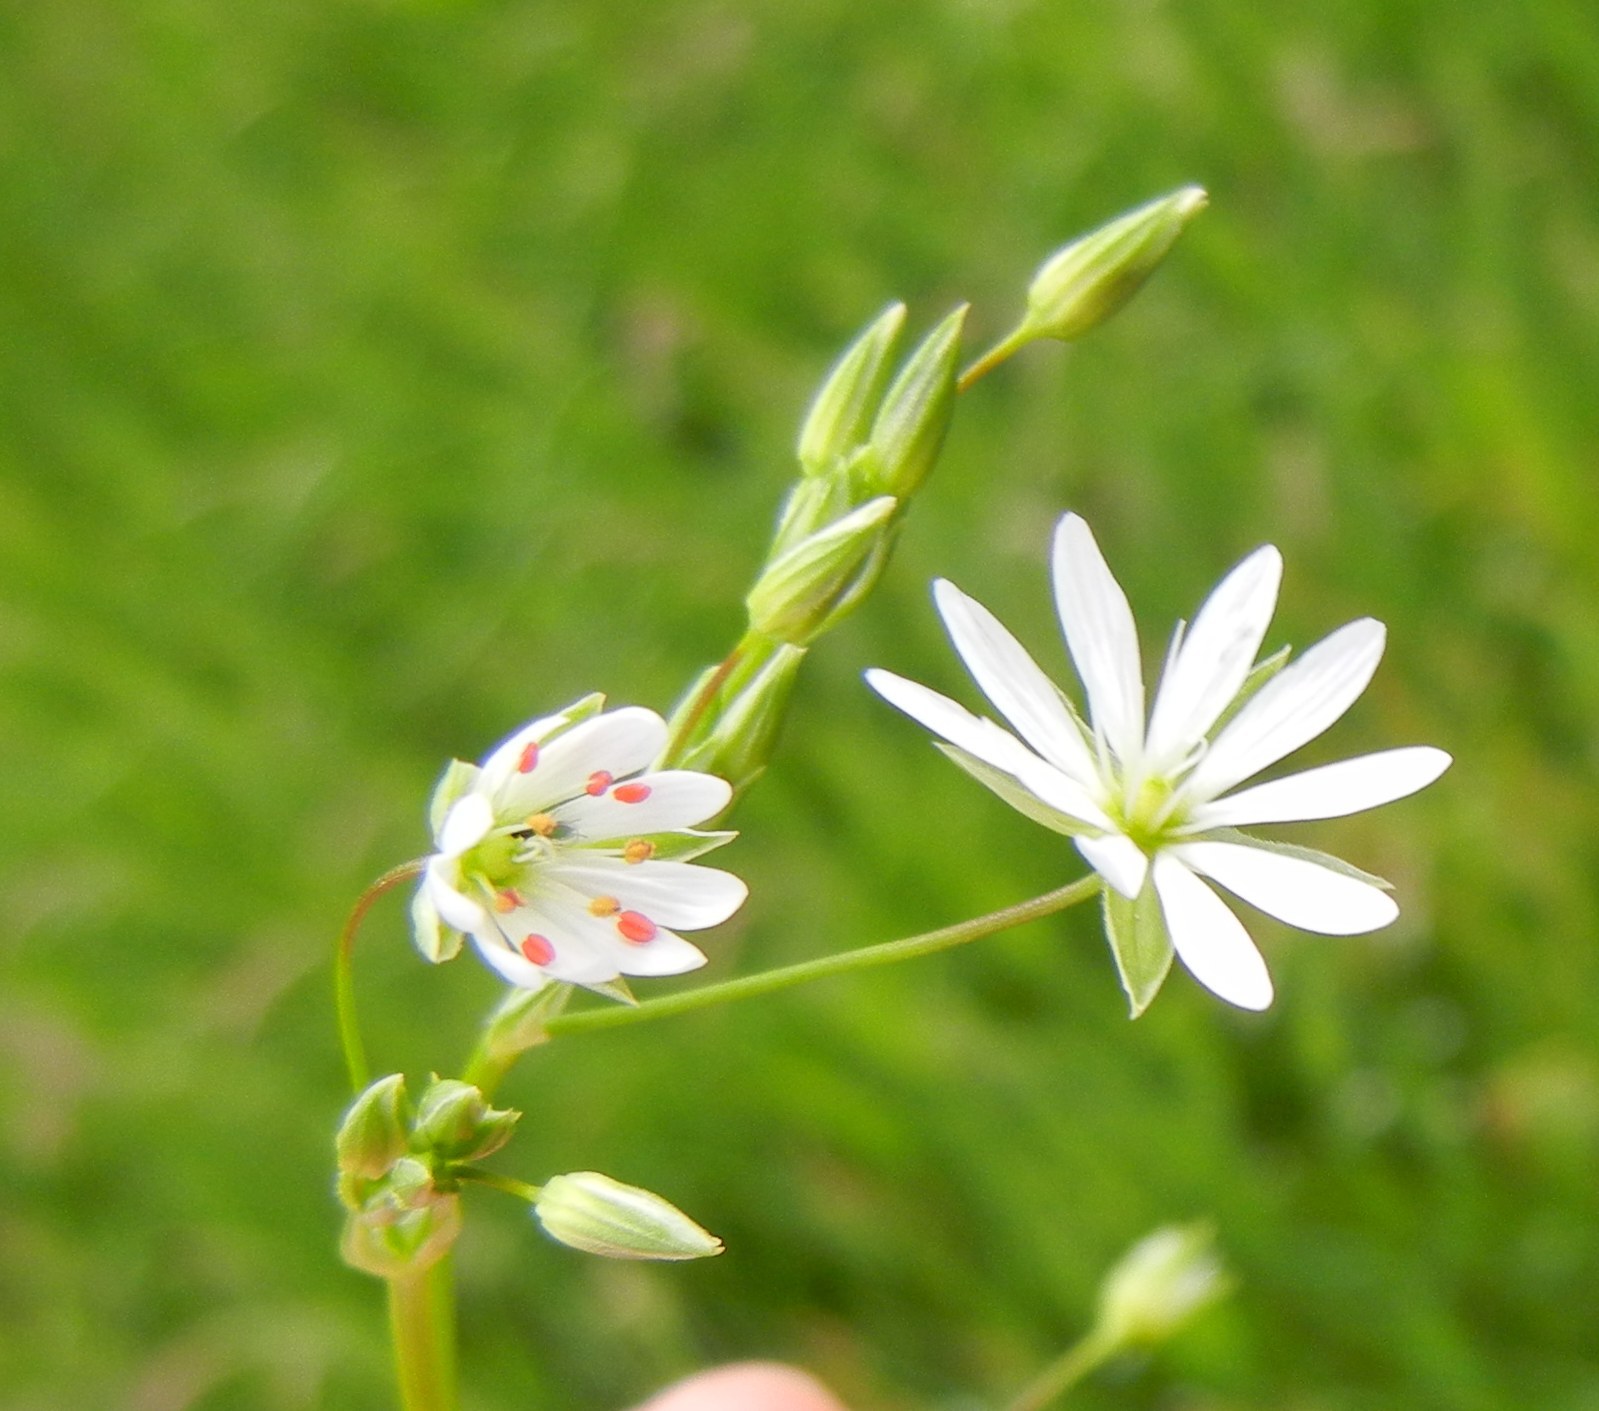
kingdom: Plantae
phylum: Tracheophyta
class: Magnoliopsida
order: Caryophyllales
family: Caryophyllaceae
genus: Stellaria
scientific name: Stellaria graminea
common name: Grass-like starwort
